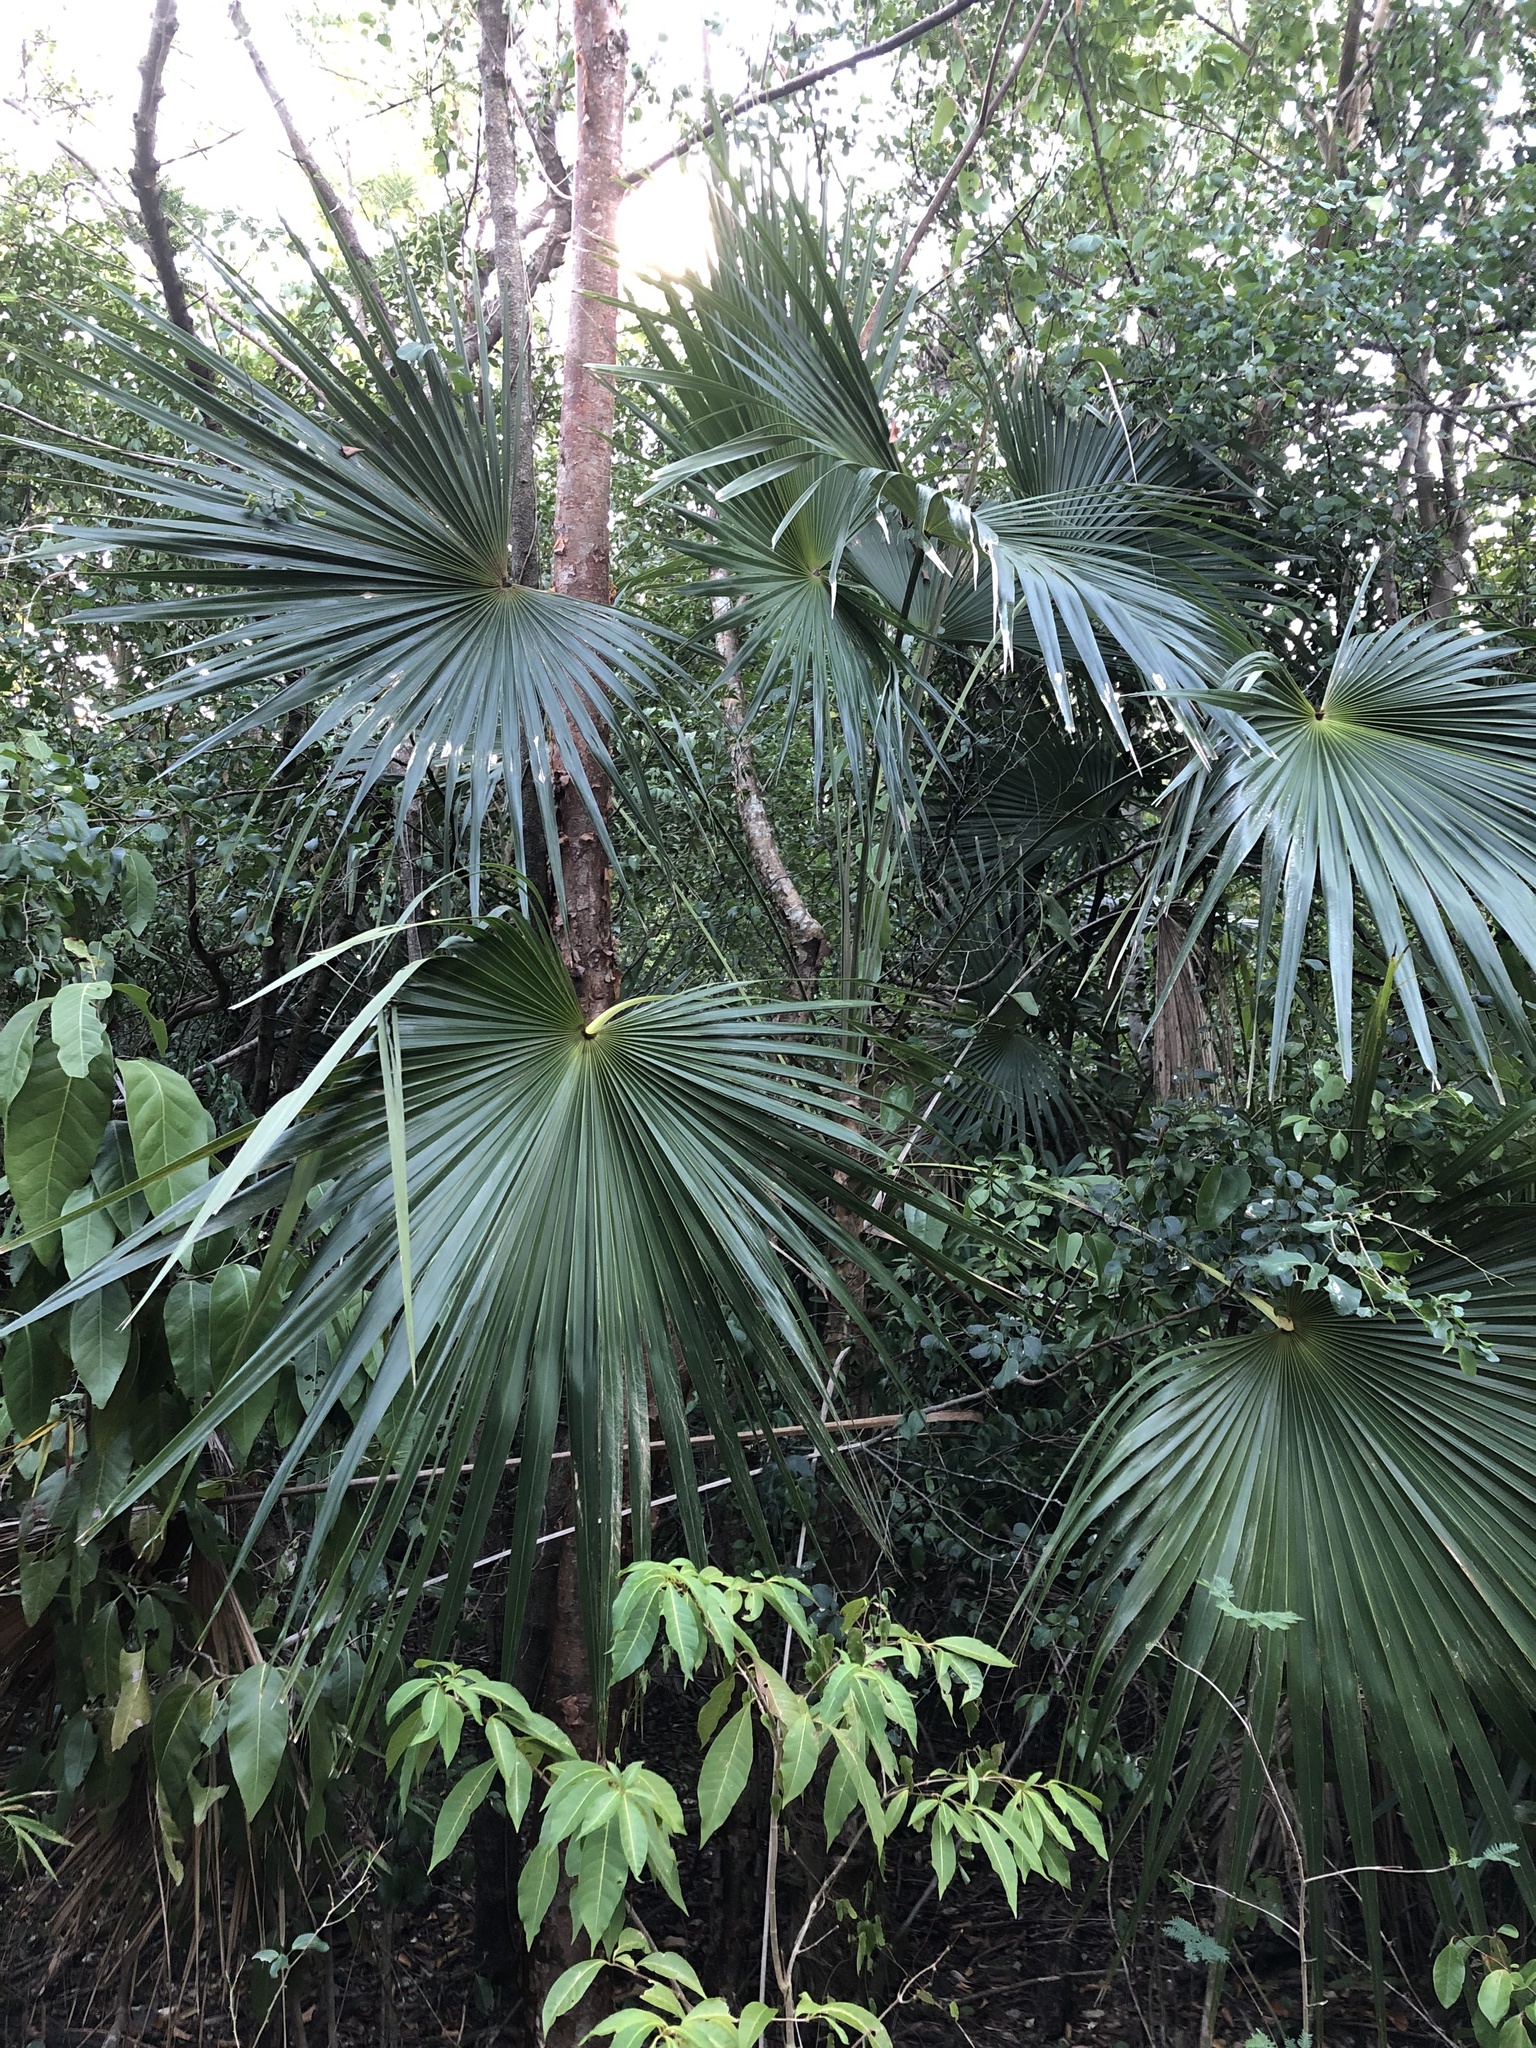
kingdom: Plantae
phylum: Tracheophyta
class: Liliopsida
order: Arecales
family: Arecaceae
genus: Coccothrinax
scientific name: Coccothrinax alta
